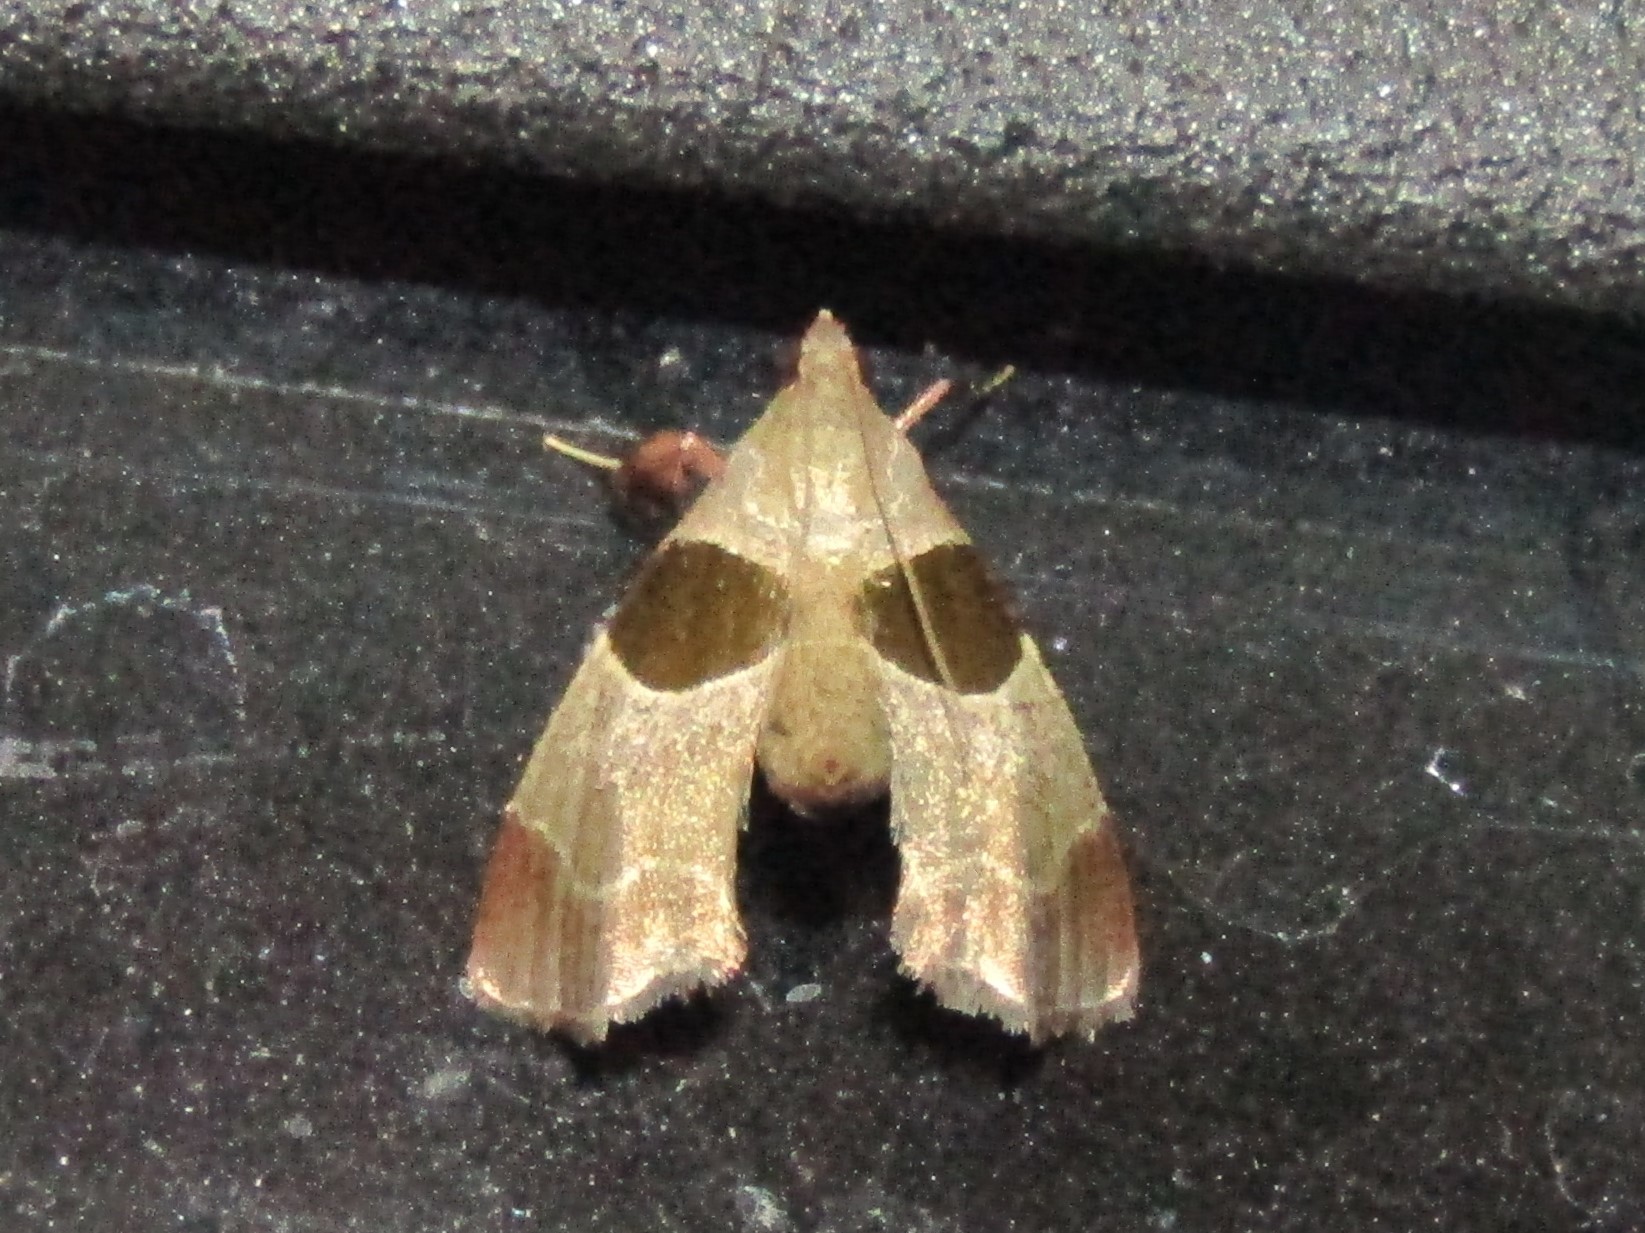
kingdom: Animalia
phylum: Arthropoda
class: Insecta
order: Lepidoptera
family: Pyralidae
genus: Tosale
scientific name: Tosale oviplagalis
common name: Dimorphic tosale moth
